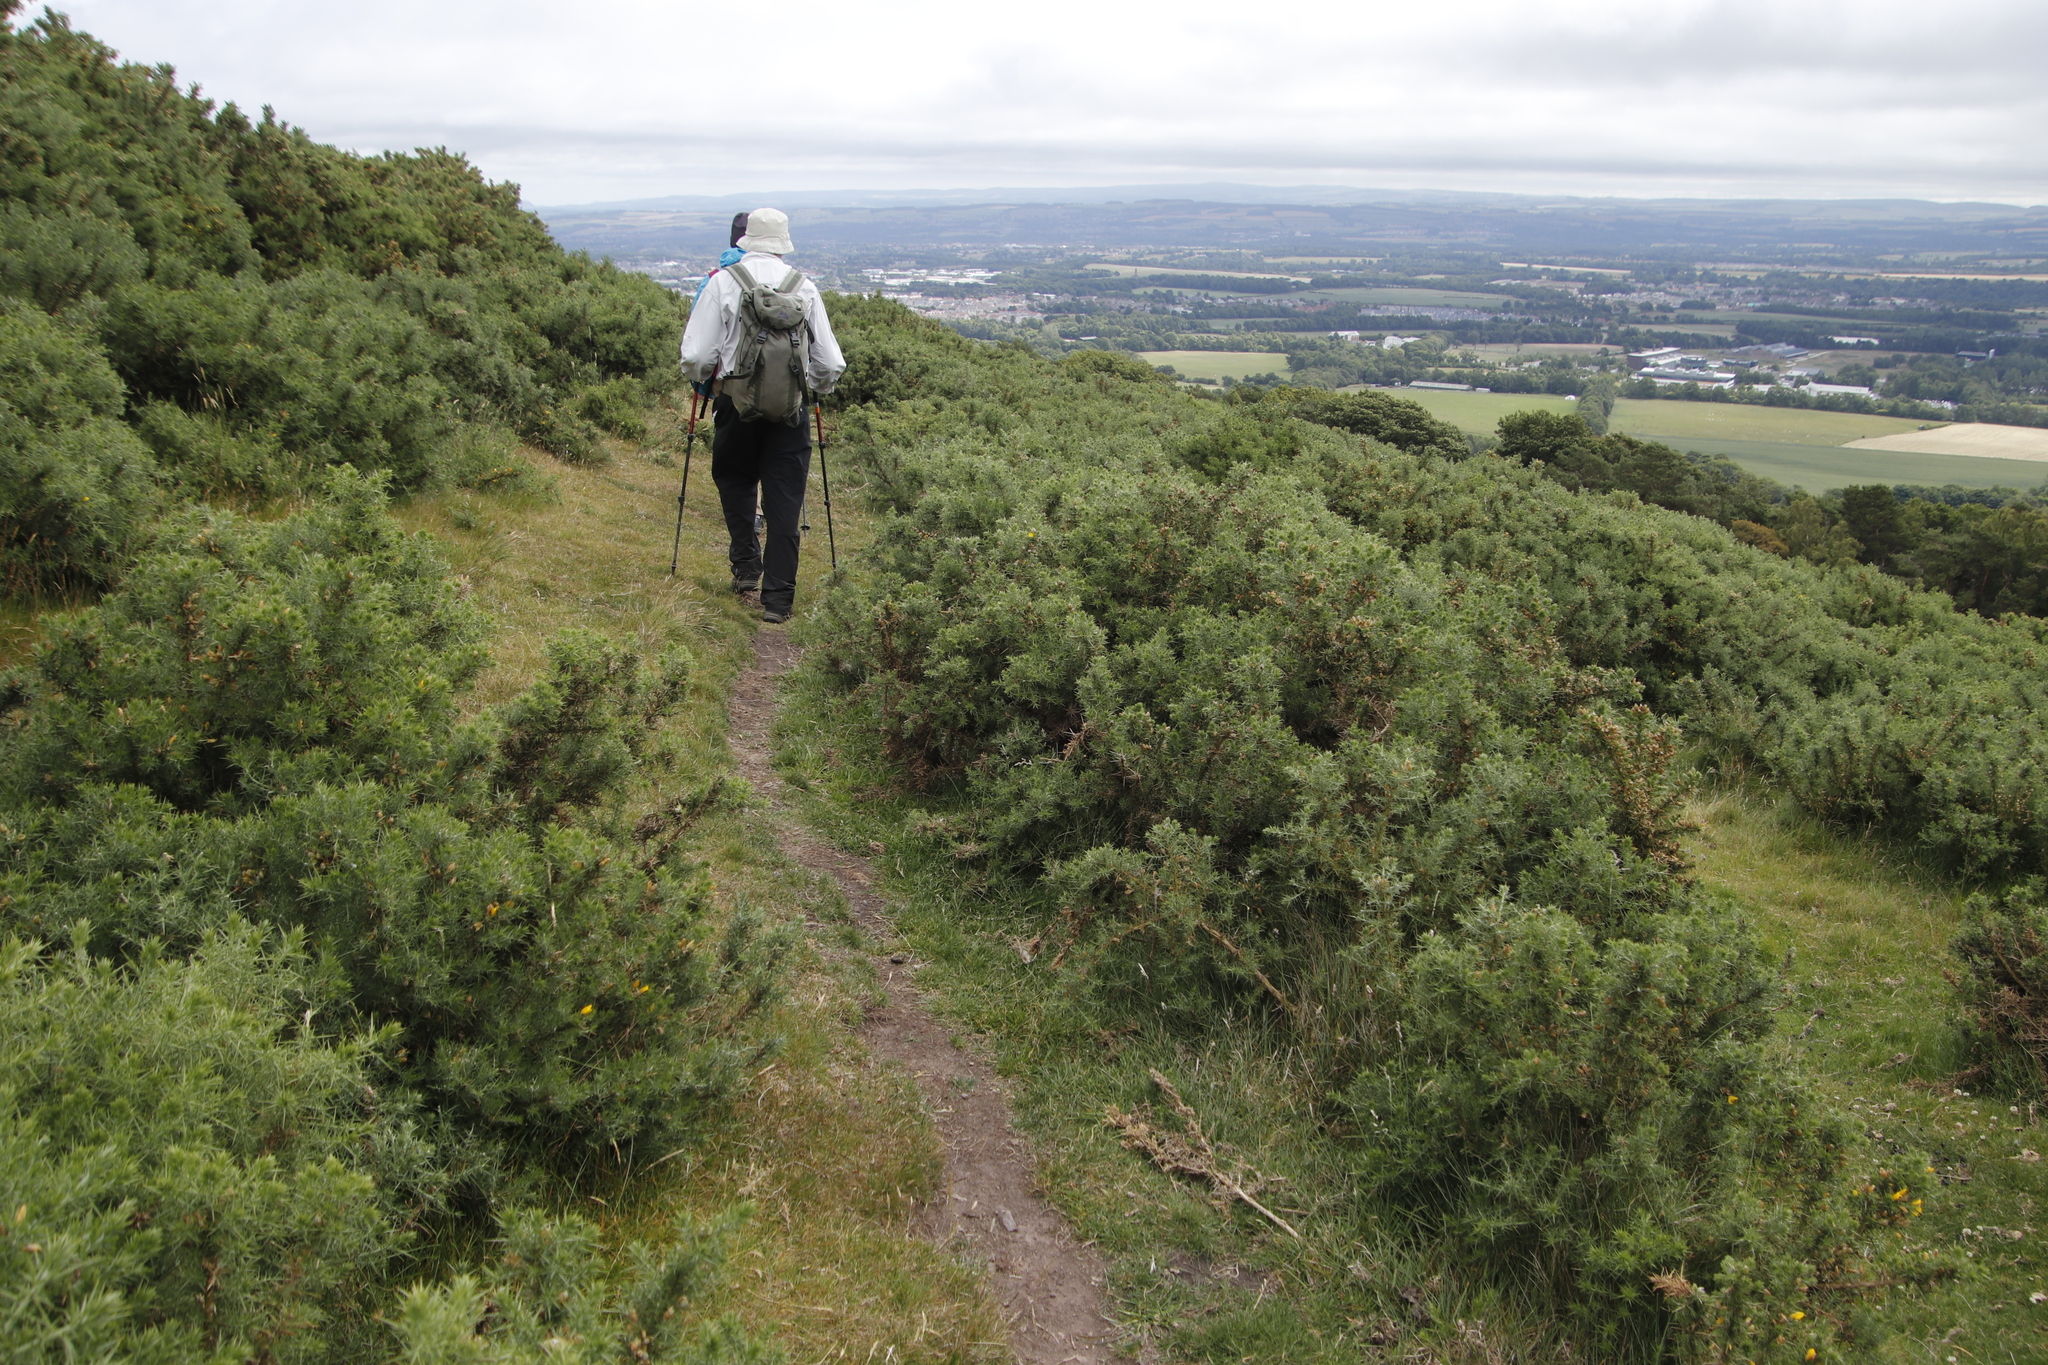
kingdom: Plantae
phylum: Tracheophyta
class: Magnoliopsida
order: Fabales
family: Fabaceae
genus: Ulex
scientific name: Ulex europaeus
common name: Common gorse
